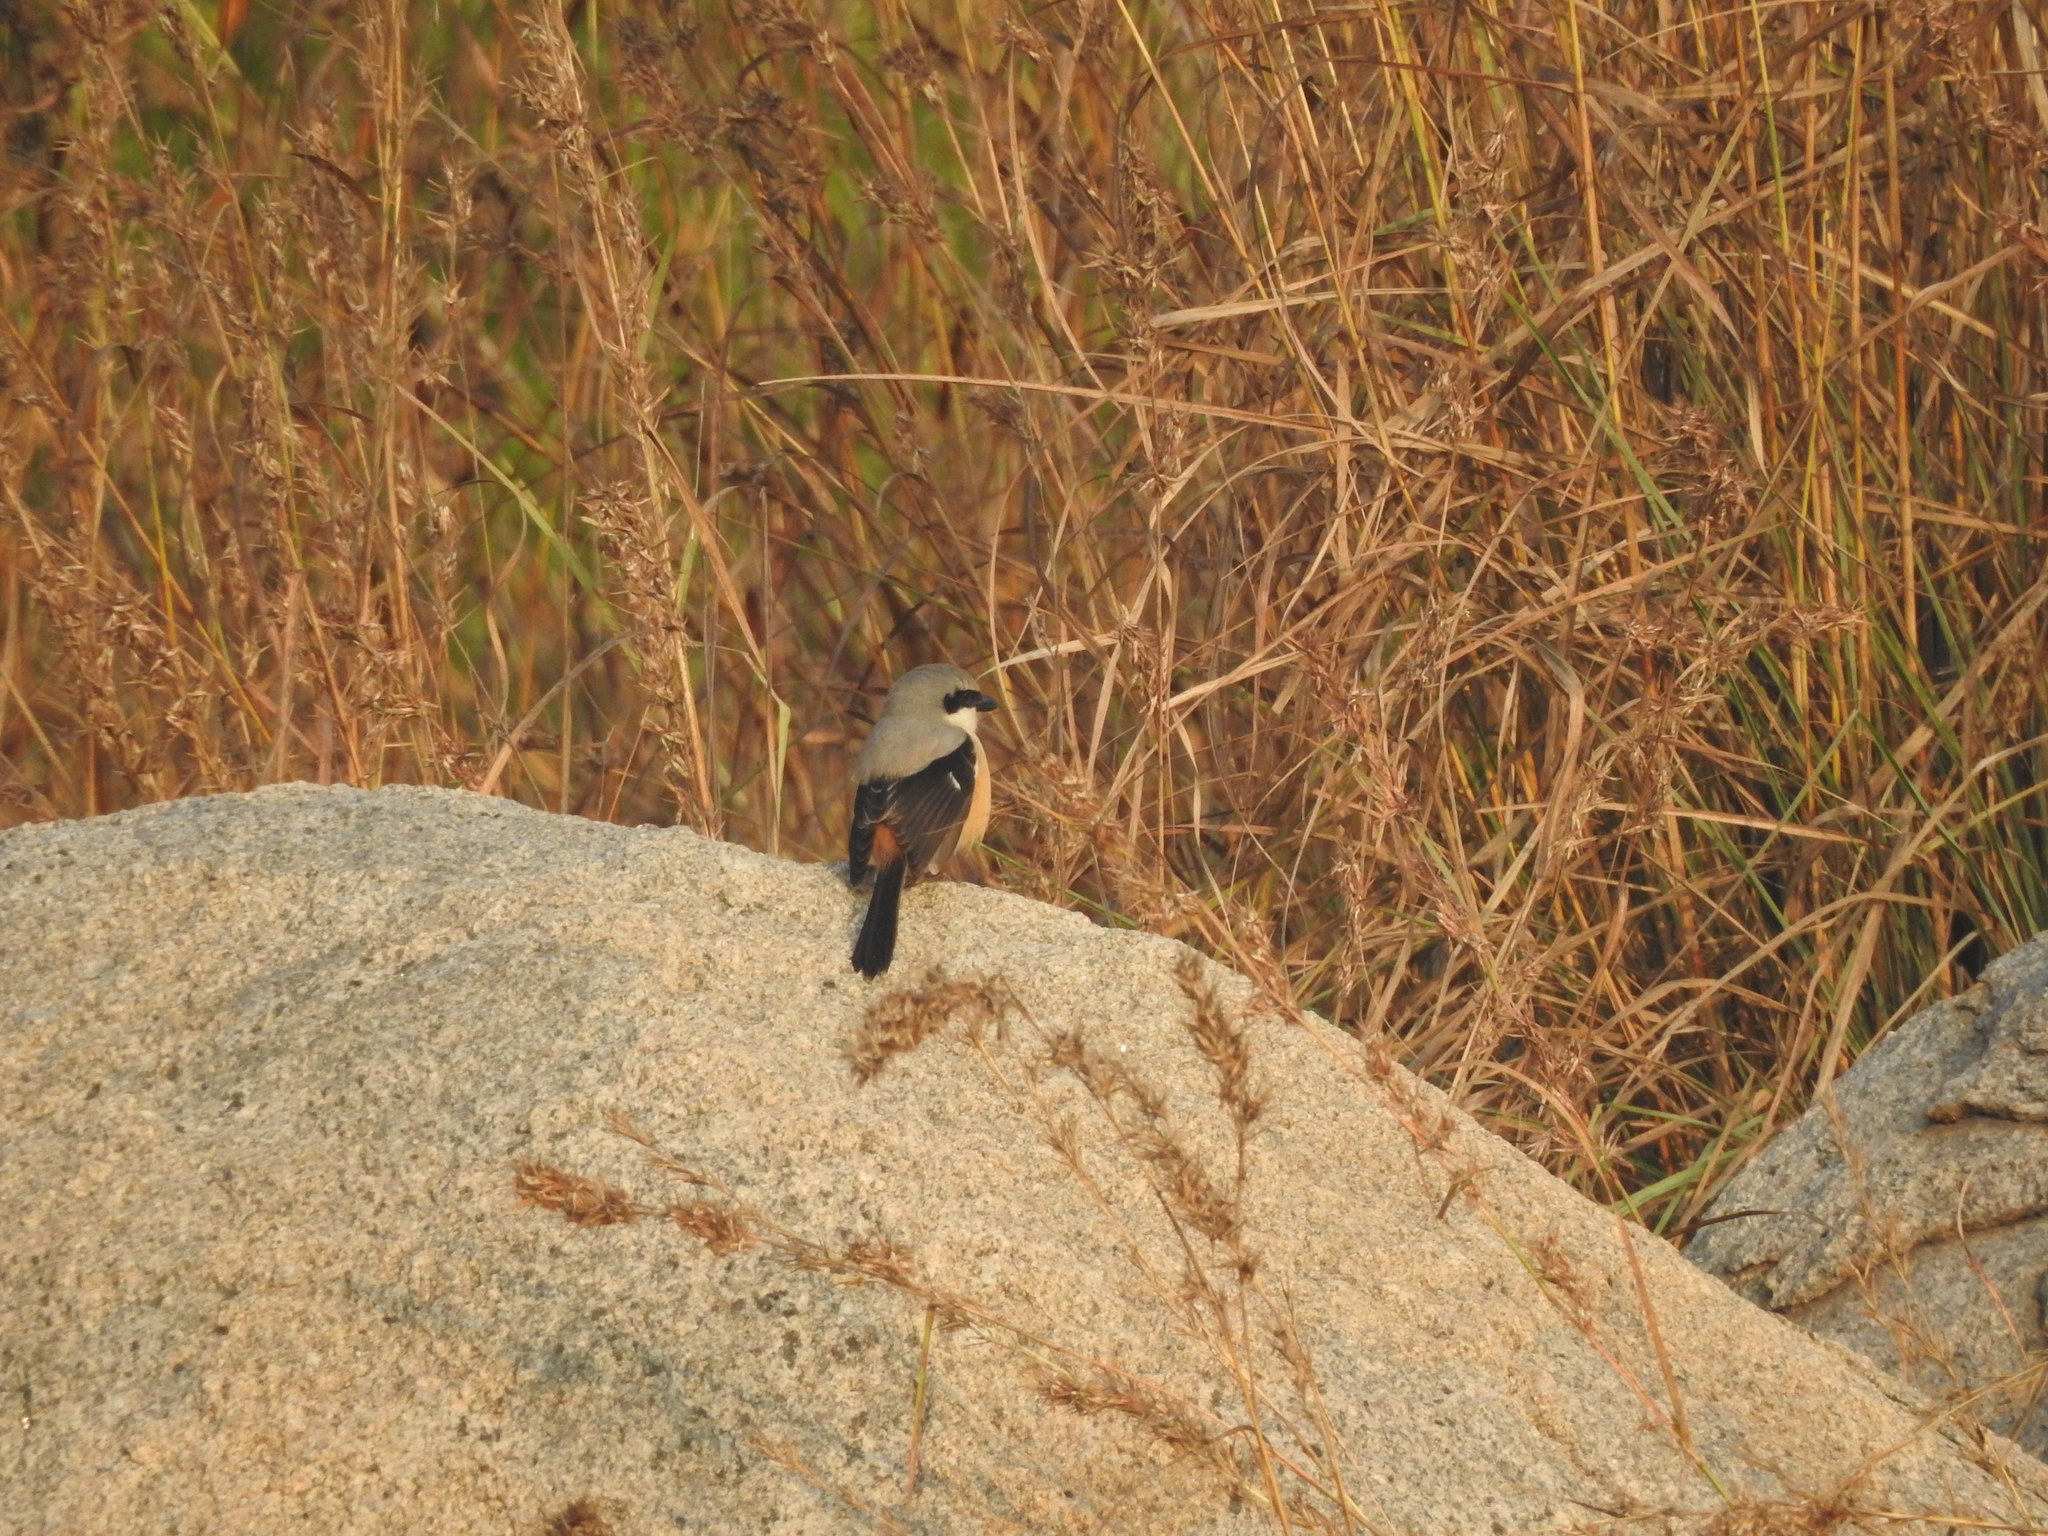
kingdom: Animalia
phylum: Chordata
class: Aves
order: Passeriformes
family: Laniidae
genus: Lanius
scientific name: Lanius schach
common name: Long-tailed shrike
